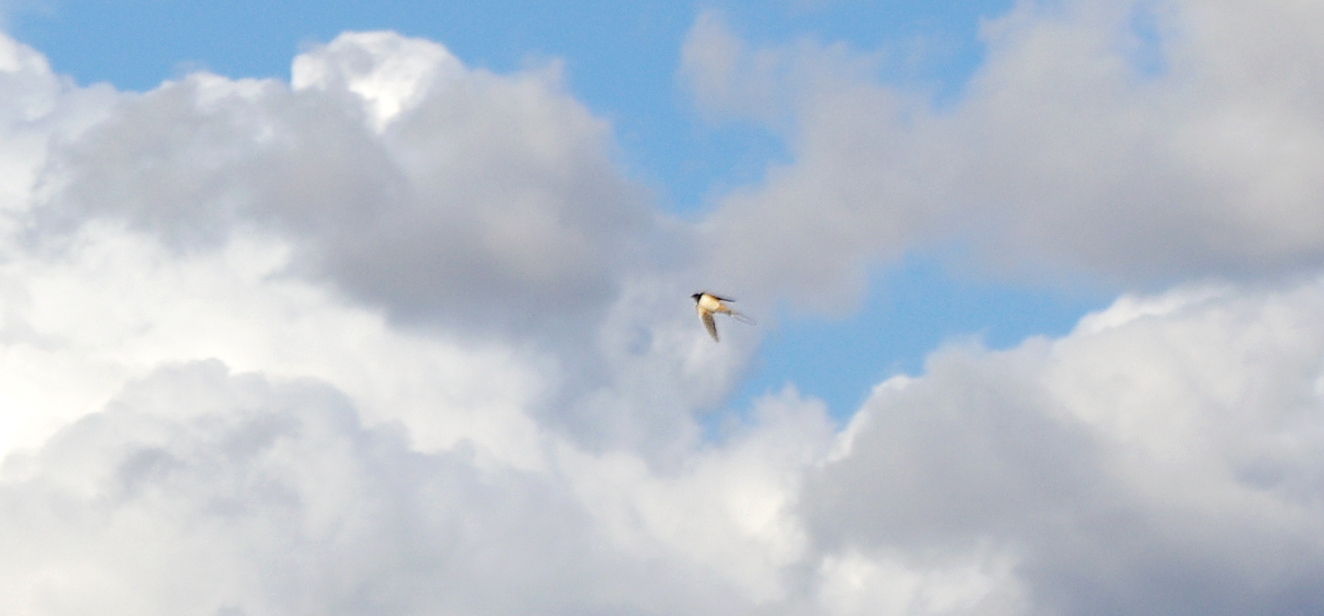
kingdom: Animalia
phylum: Chordata
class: Aves
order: Passeriformes
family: Hirundinidae
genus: Hirundo
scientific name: Hirundo rustica
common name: Barn swallow
